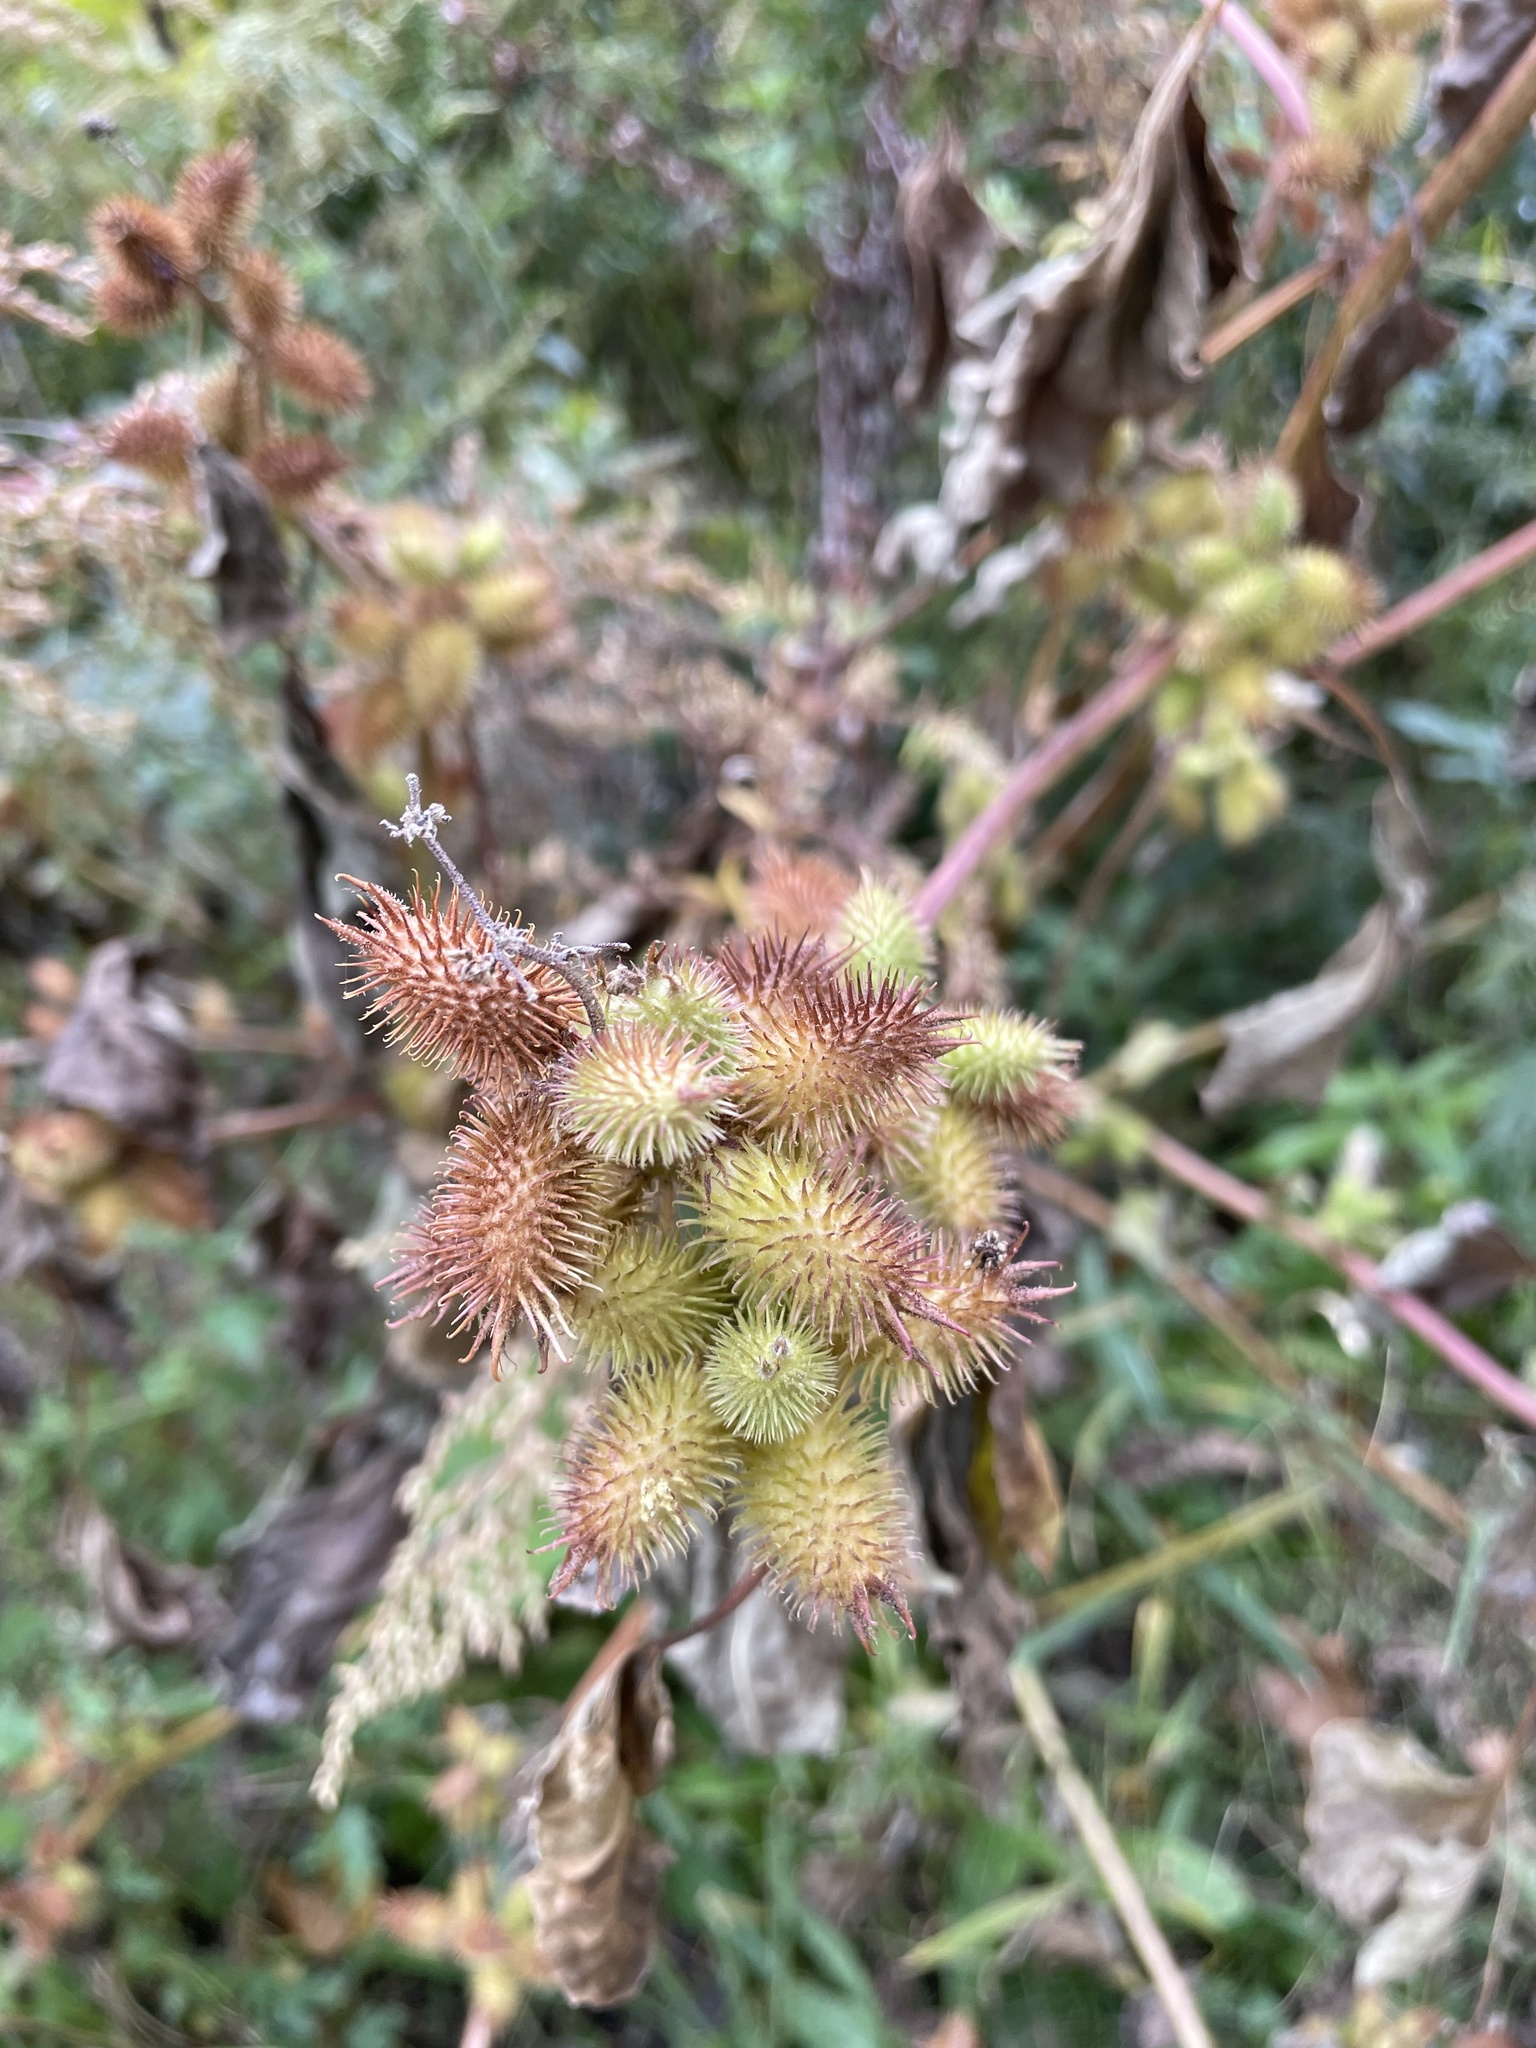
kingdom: Plantae
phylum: Tracheophyta
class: Magnoliopsida
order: Asterales
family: Asteraceae
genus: Xanthium
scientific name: Xanthium strumarium
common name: Rough cocklebur
